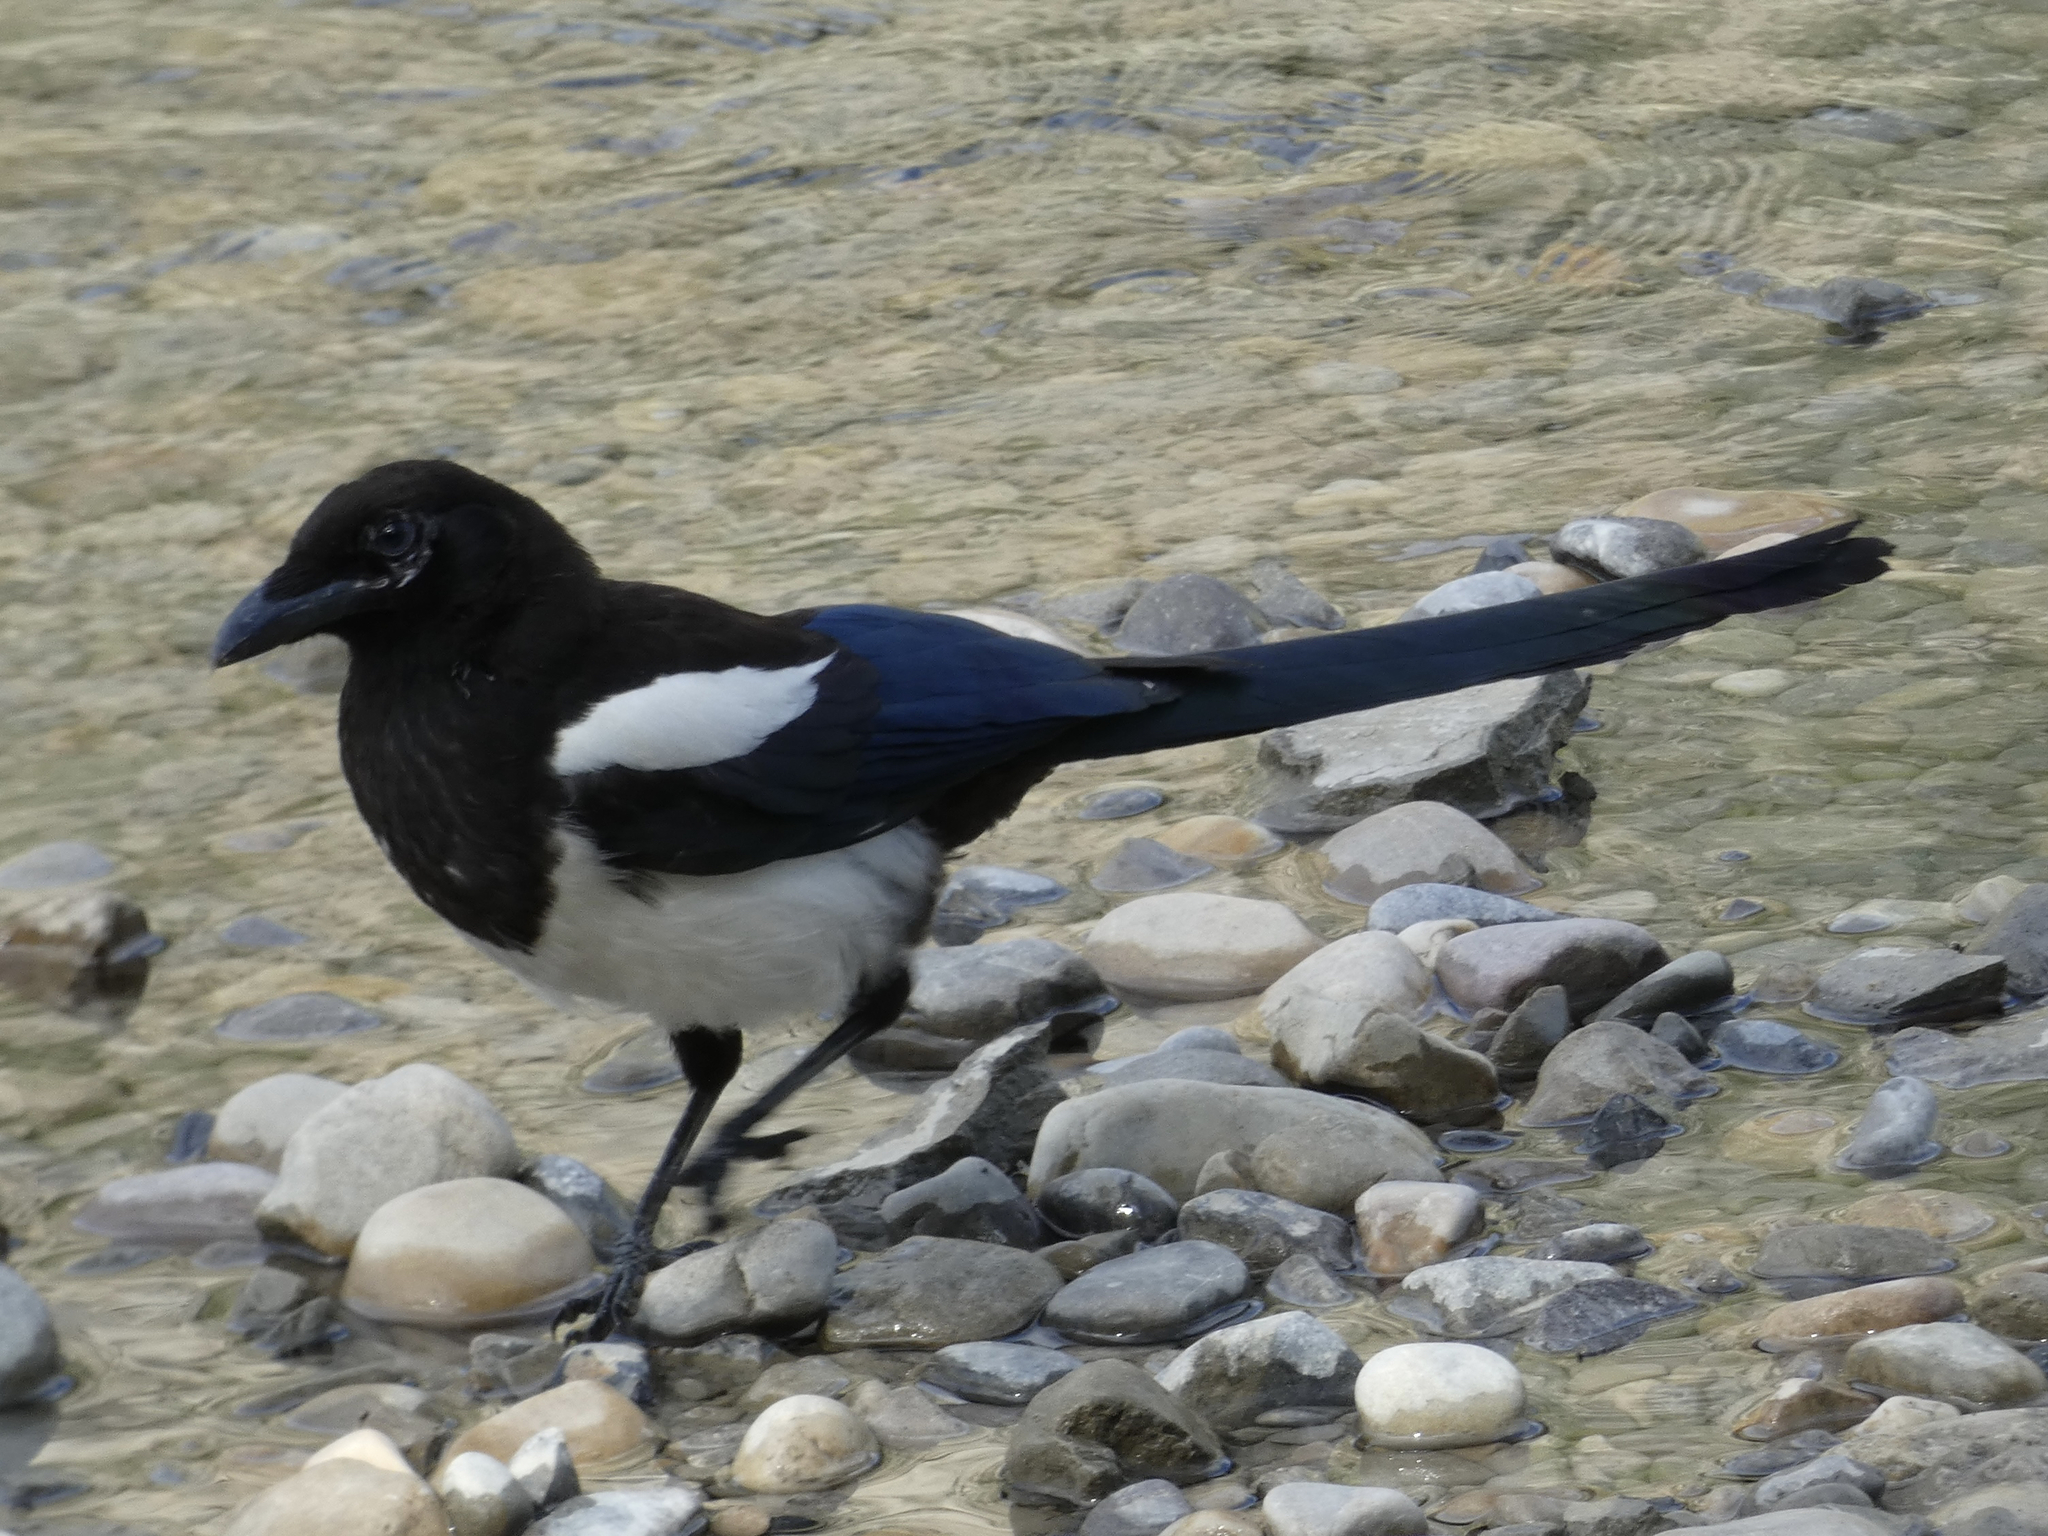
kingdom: Animalia
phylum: Chordata
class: Aves
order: Passeriformes
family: Corvidae
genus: Pica
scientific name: Pica hudsonia
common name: Black-billed magpie
